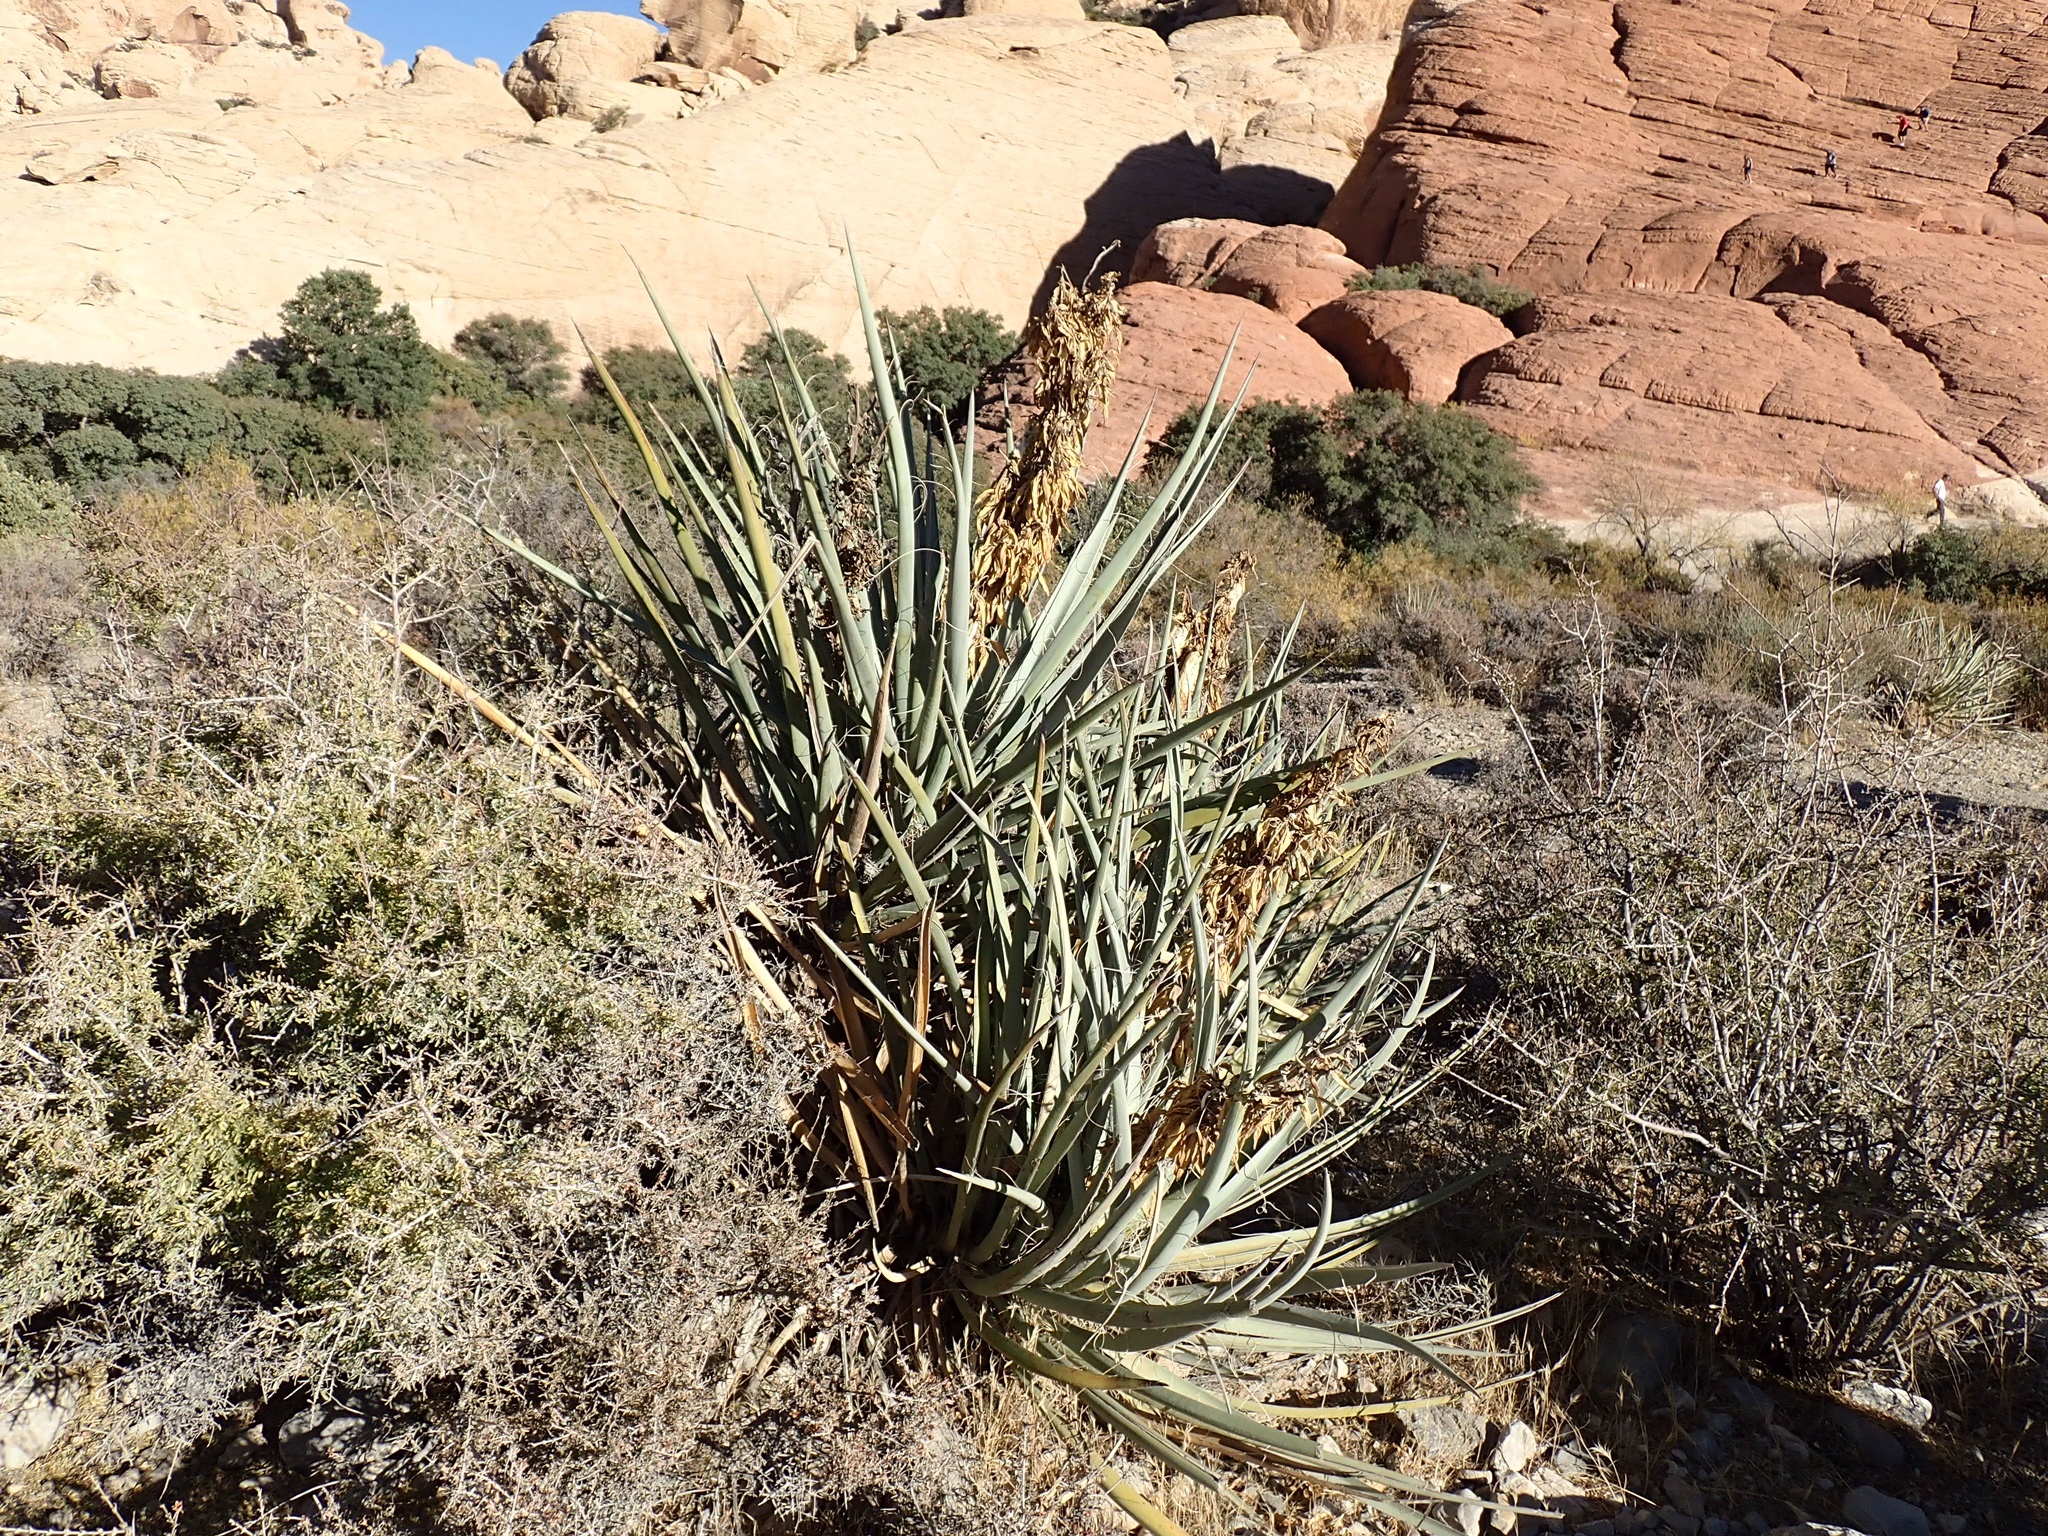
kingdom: Plantae
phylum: Tracheophyta
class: Liliopsida
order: Asparagales
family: Asparagaceae
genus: Yucca
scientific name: Yucca baccata
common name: Banana yucca
